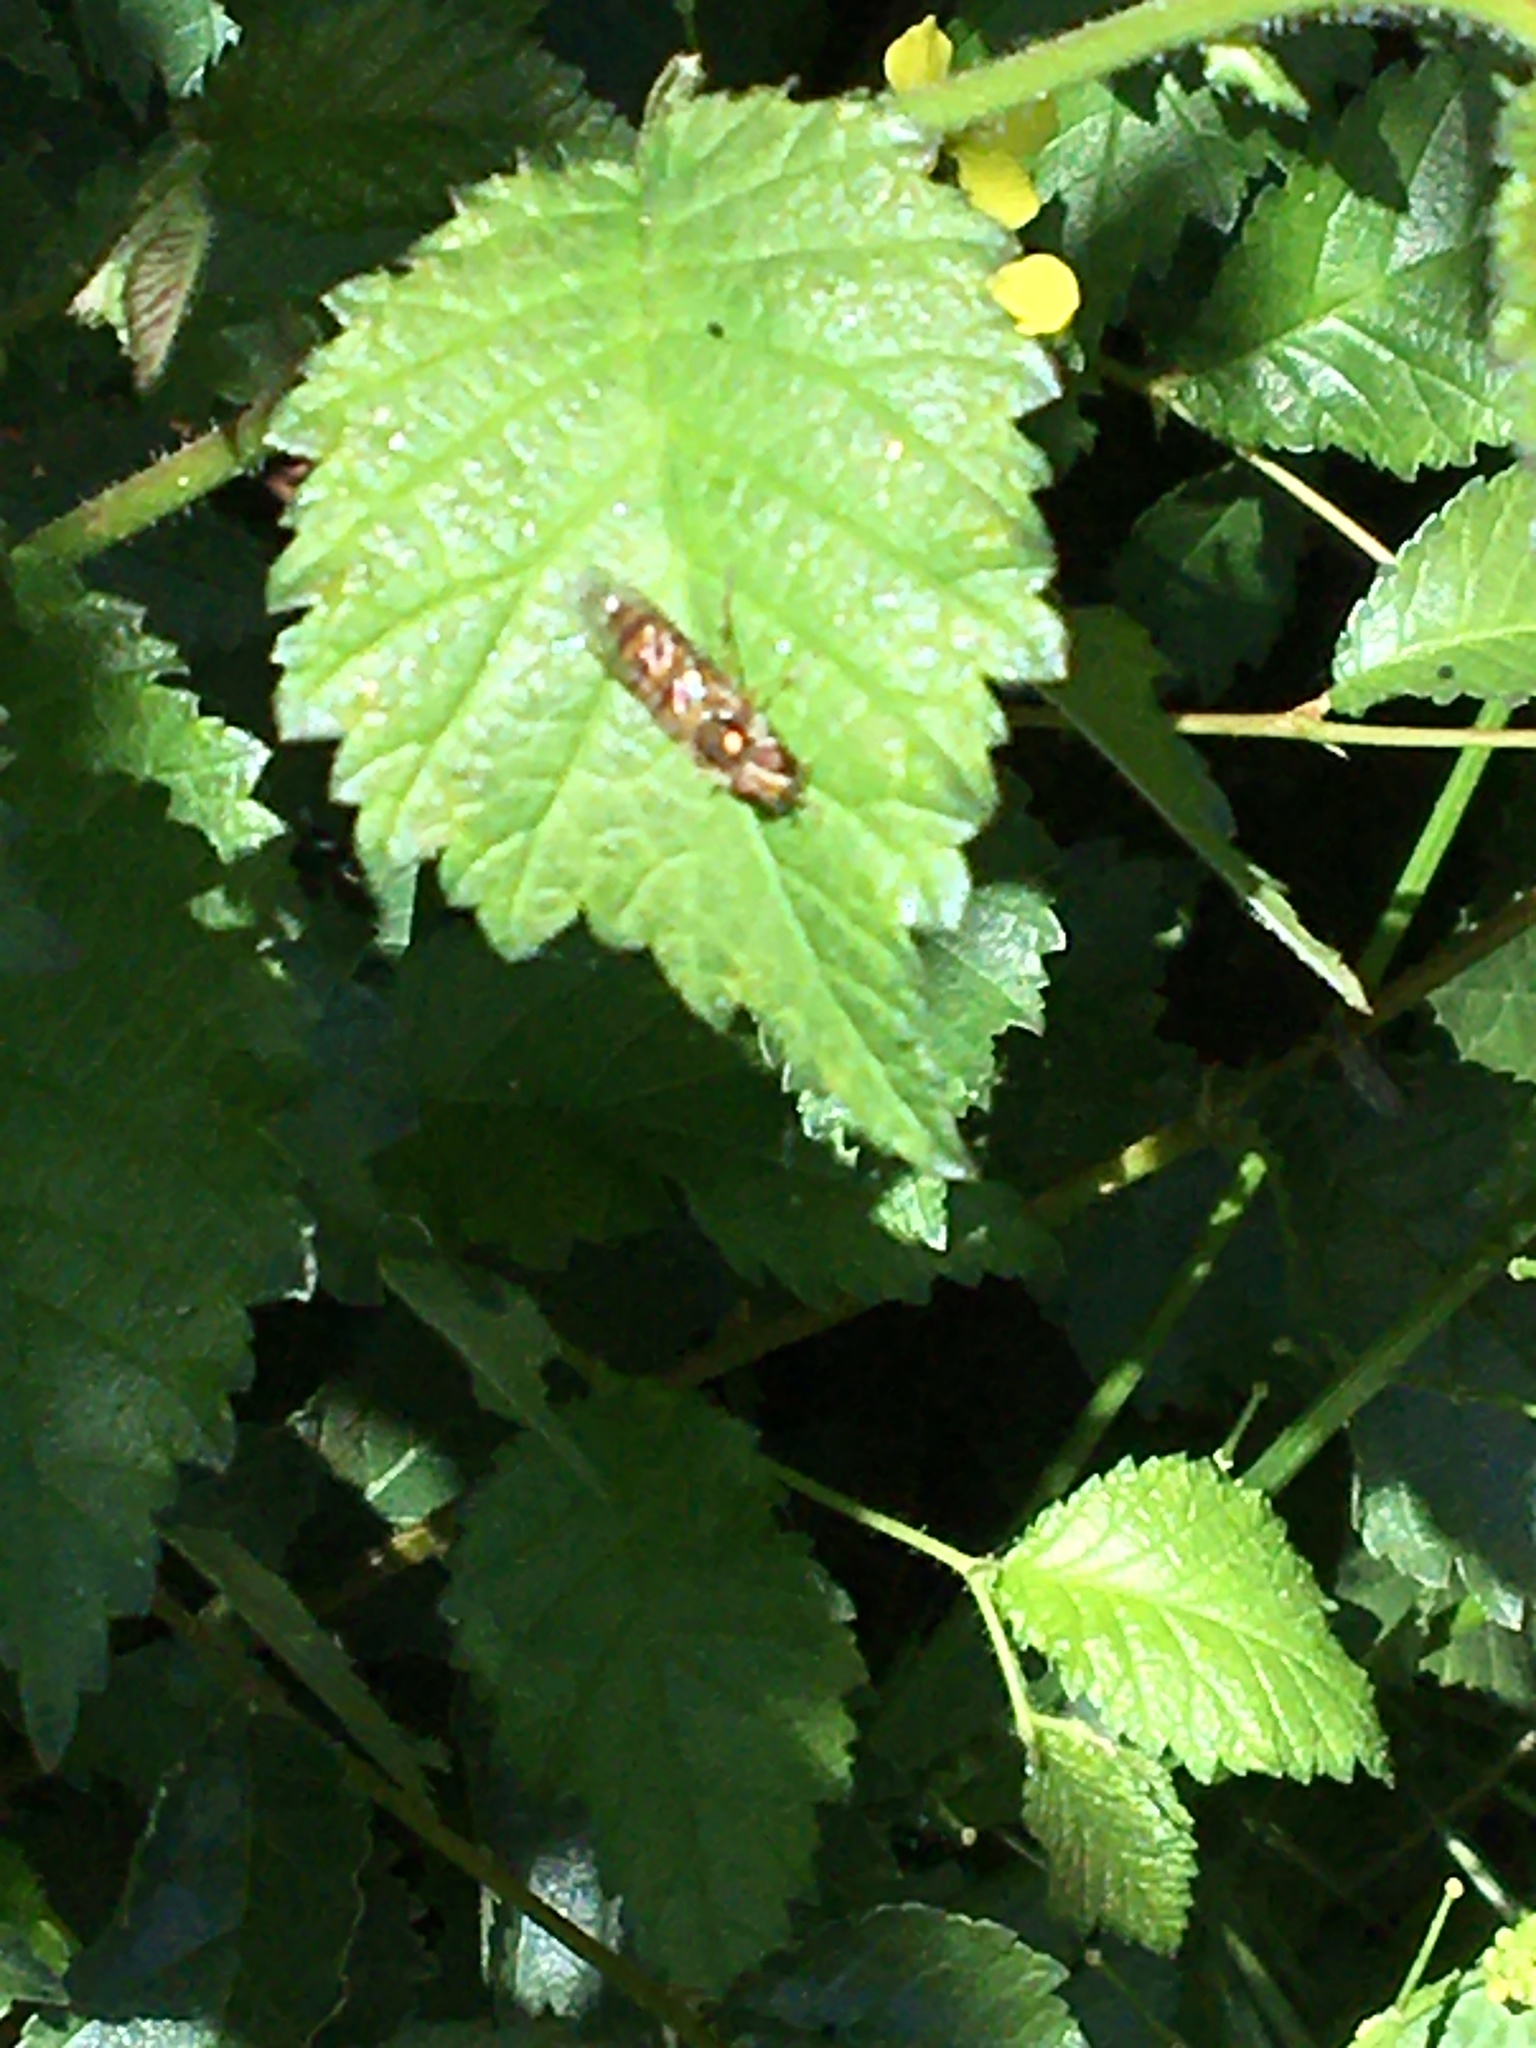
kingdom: Animalia
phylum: Arthropoda
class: Insecta
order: Diptera
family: Syrphidae
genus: Episyrphus
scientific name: Episyrphus balteatus
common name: Marmalade hoverfly
